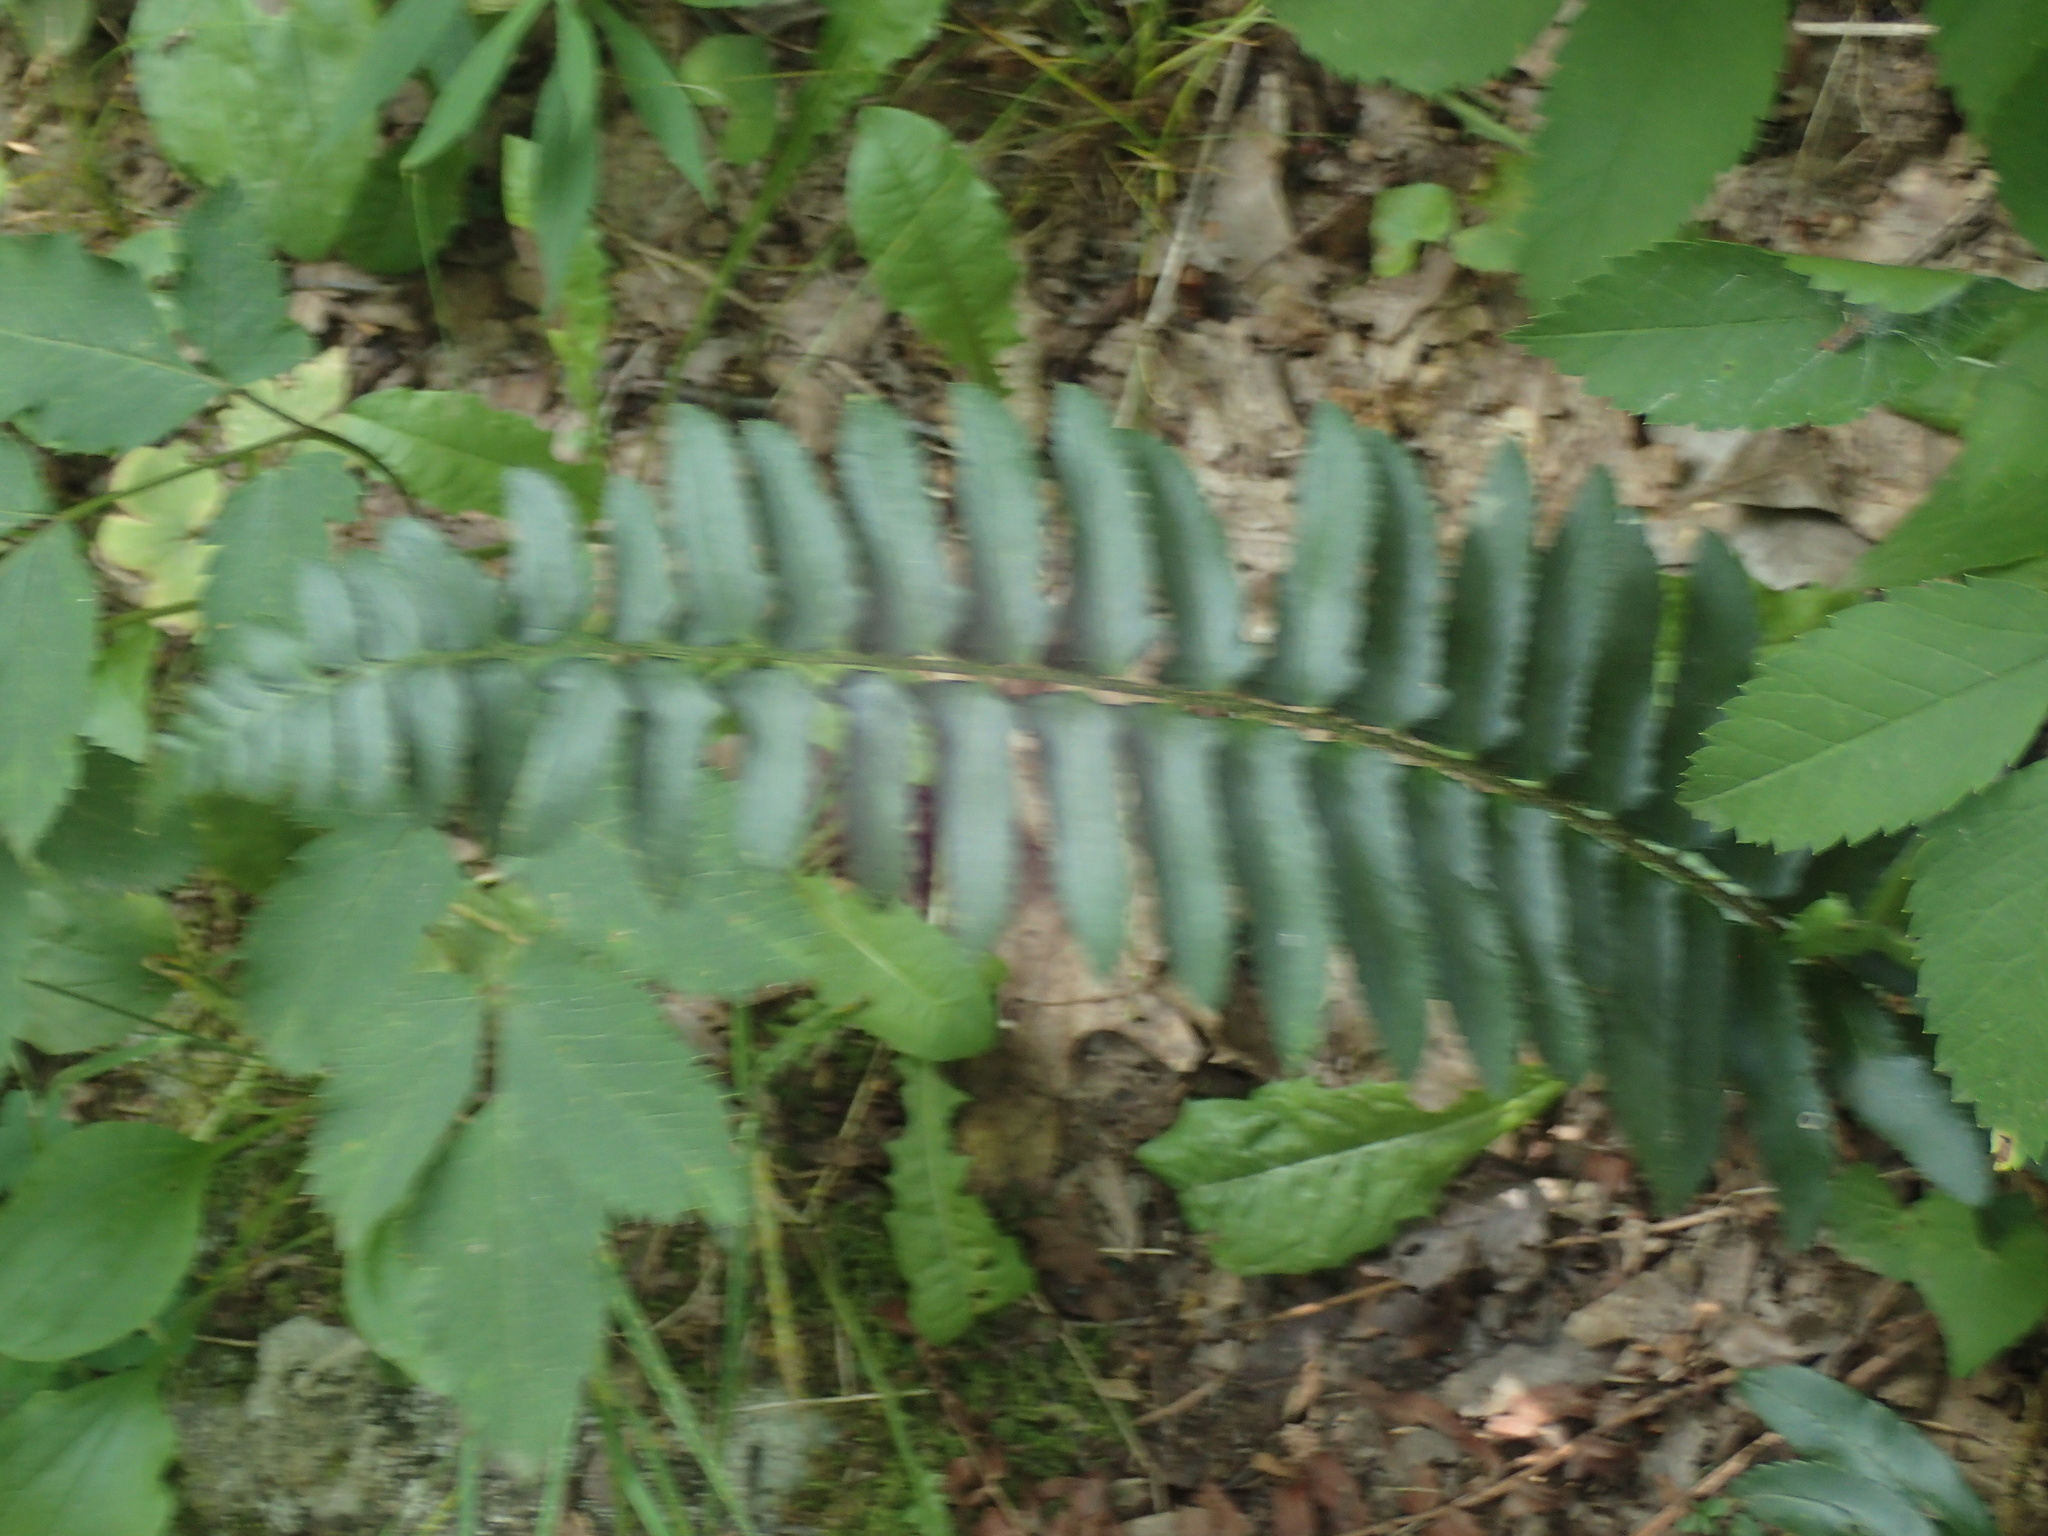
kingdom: Plantae
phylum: Tracheophyta
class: Polypodiopsida
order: Polypodiales
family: Dryopteridaceae
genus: Polystichum
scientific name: Polystichum acrostichoides
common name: Christmas fern
